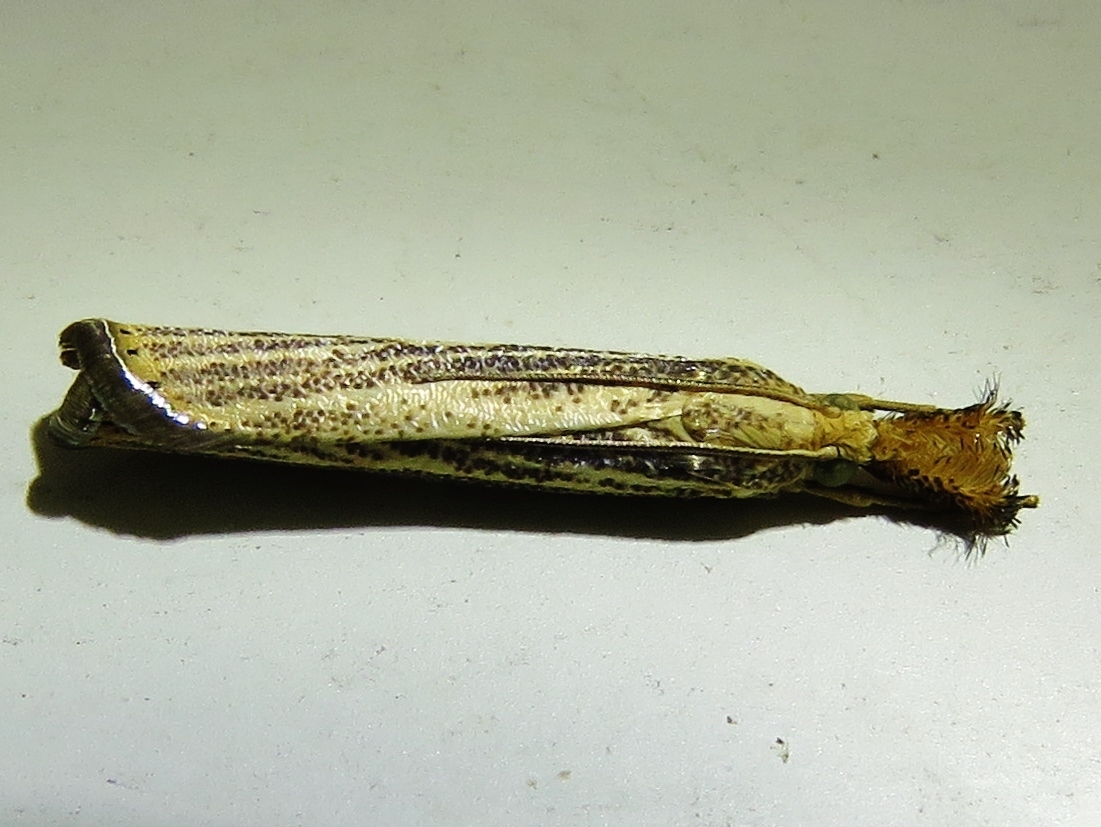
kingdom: Animalia
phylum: Arthropoda
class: Insecta
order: Lepidoptera
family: Crambidae
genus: Agriphila
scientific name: Agriphila vulgivagellus
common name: Vagabond crambus moth
